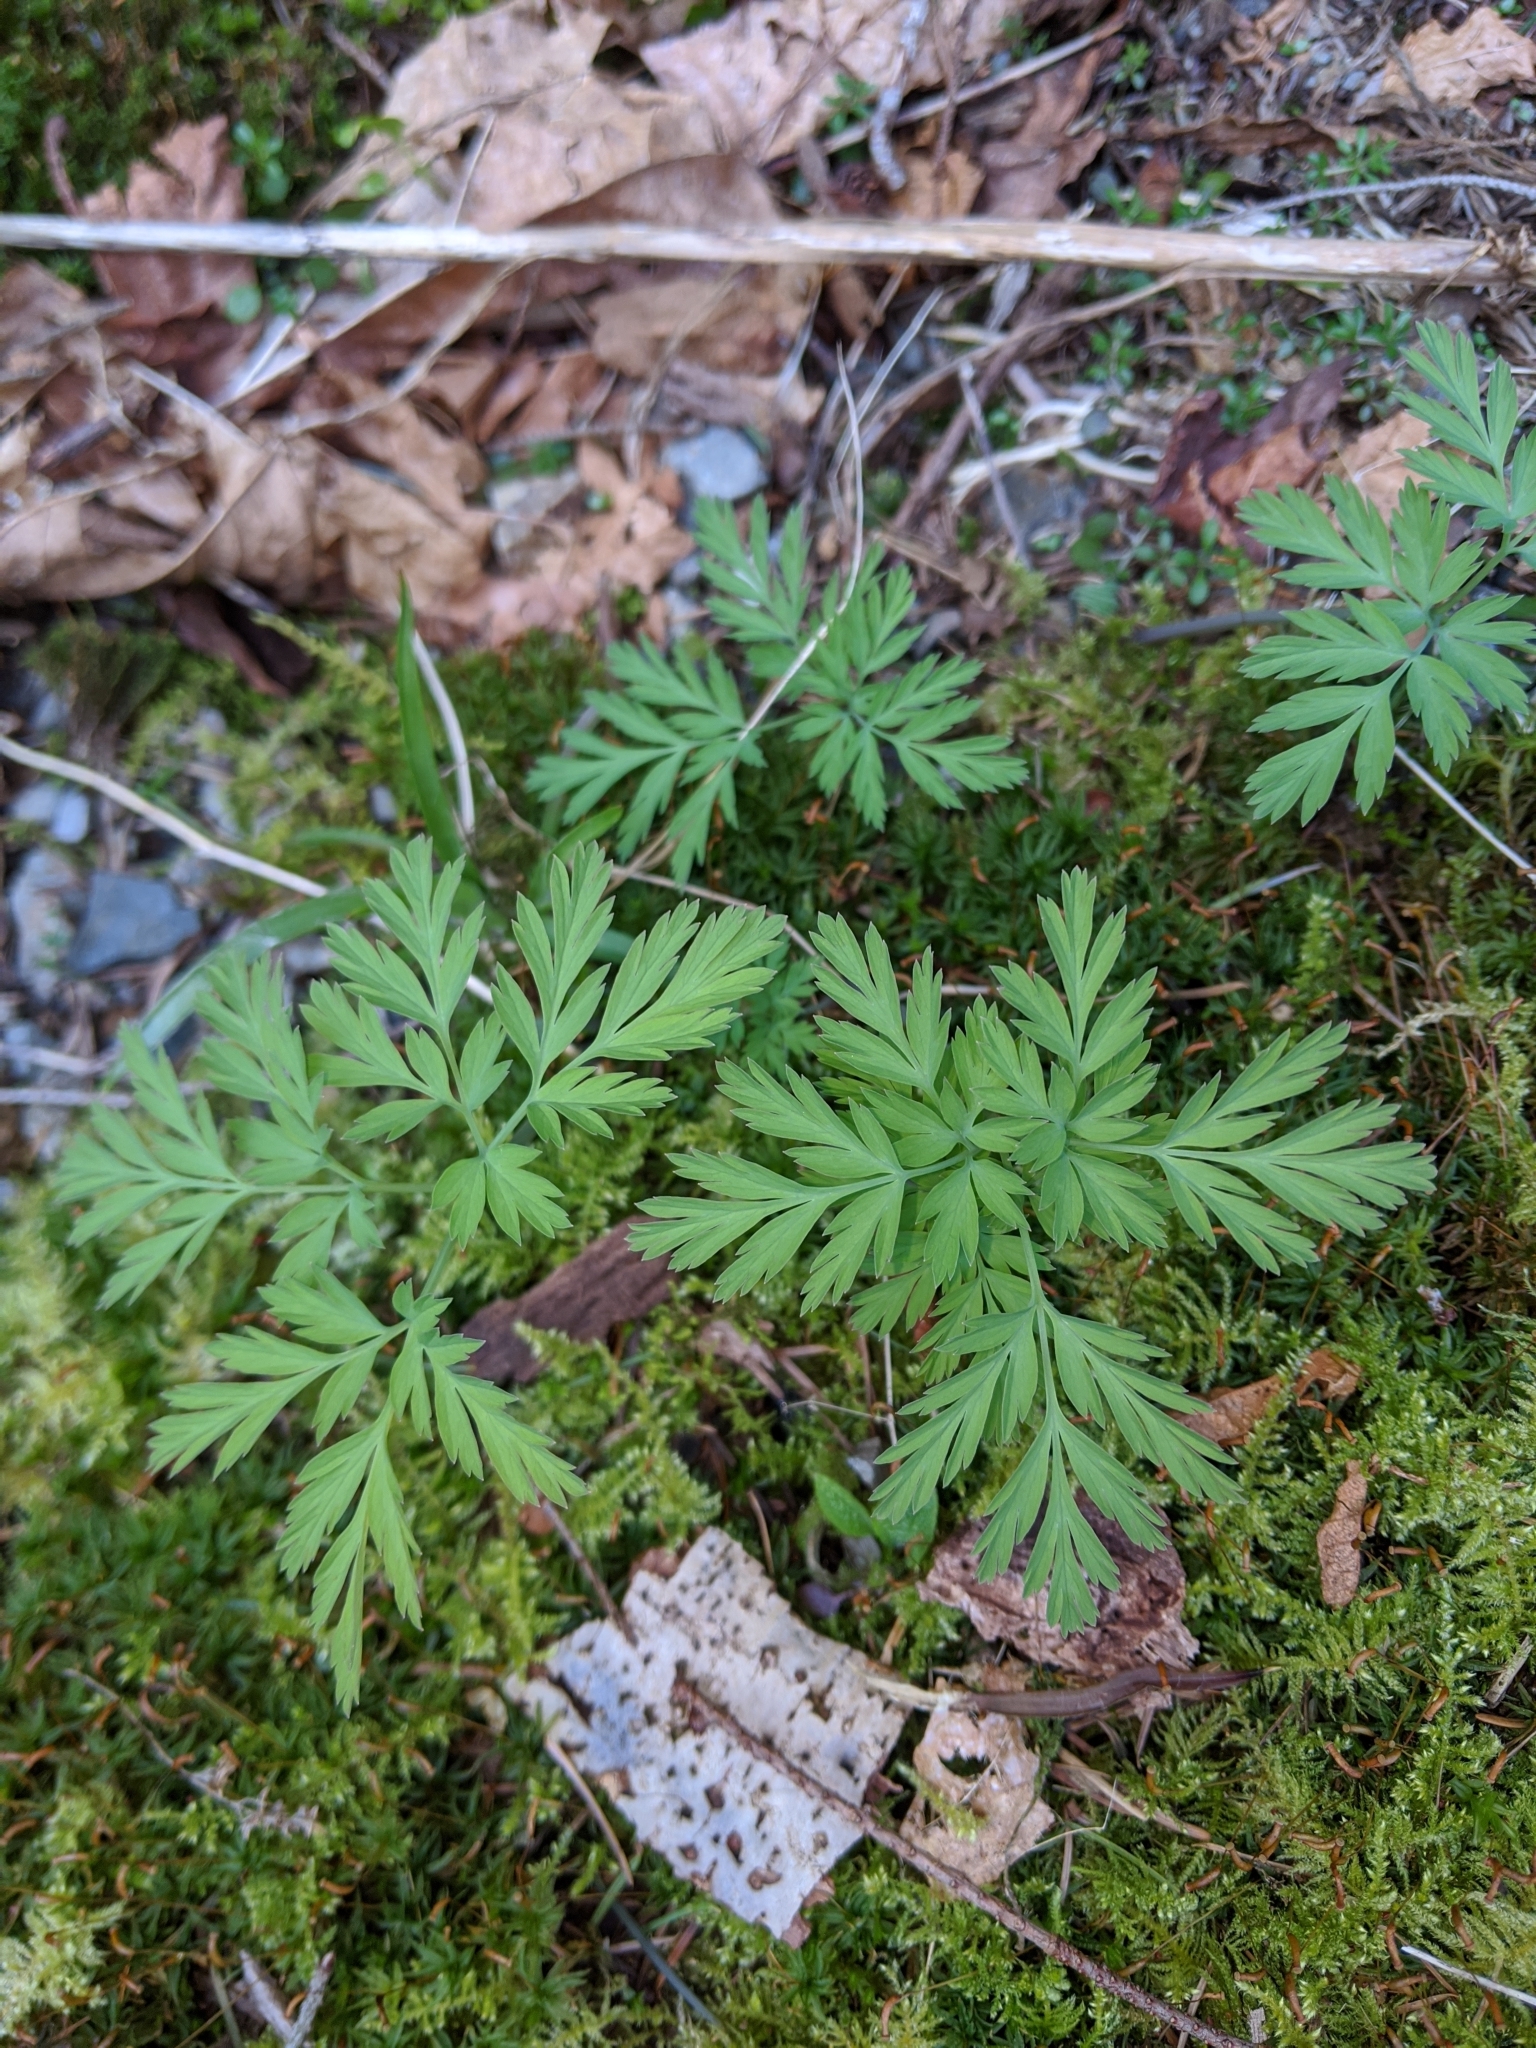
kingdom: Plantae
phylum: Tracheophyta
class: Magnoliopsida
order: Ranunculales
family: Papaveraceae
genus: Dicentra
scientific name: Dicentra formosa
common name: Bleeding-heart
